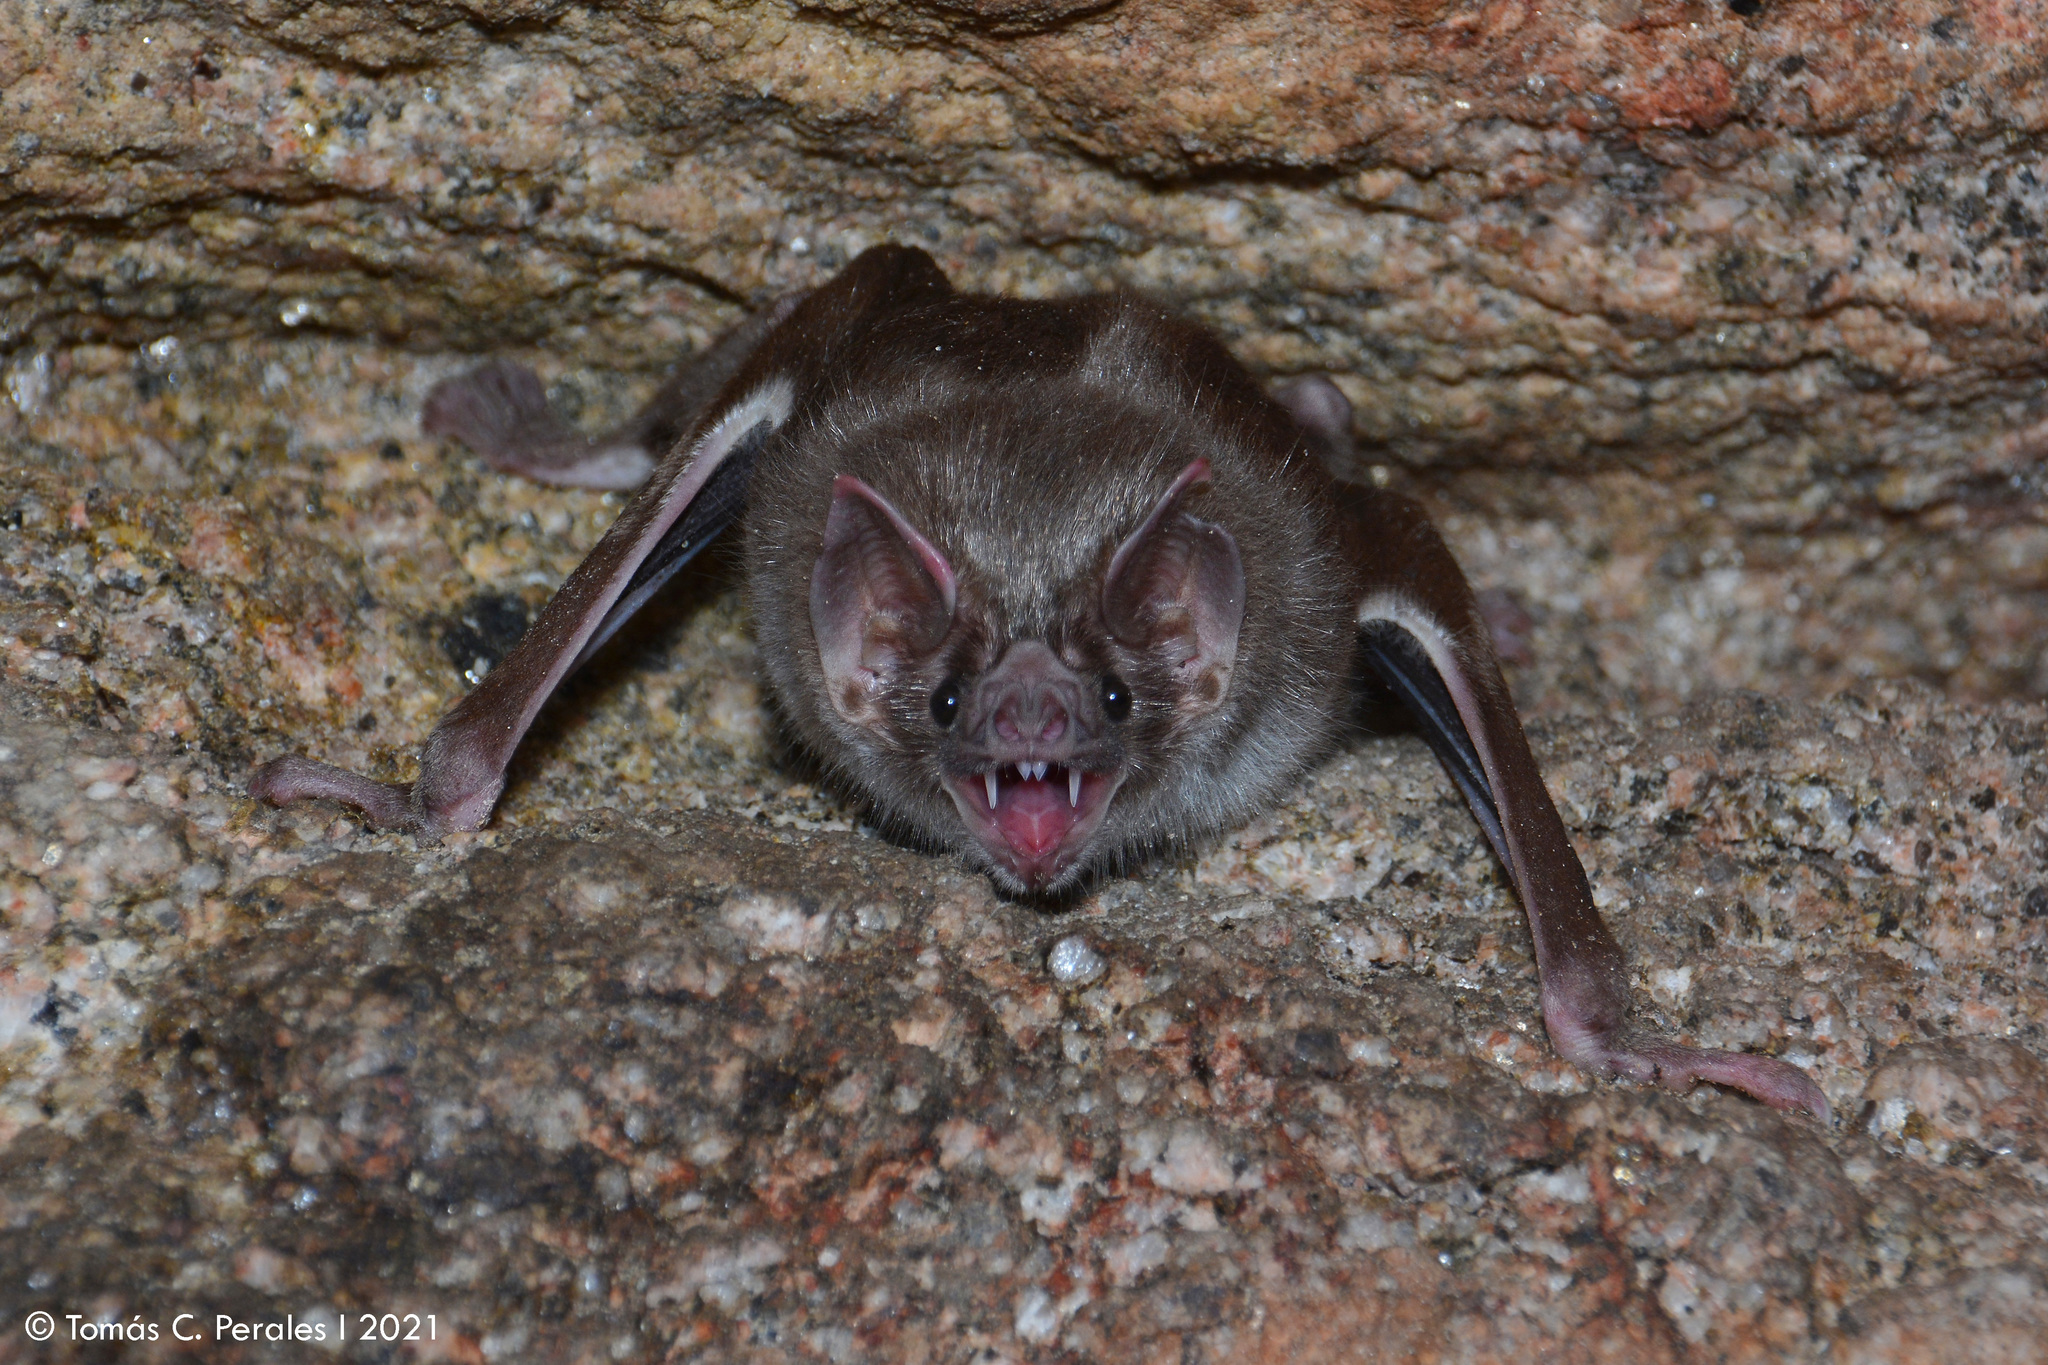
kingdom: Animalia
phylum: Chordata
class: Mammalia
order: Chiroptera
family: Phyllostomidae
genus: Desmodus
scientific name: Desmodus rotundus
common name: Common vampire bat
